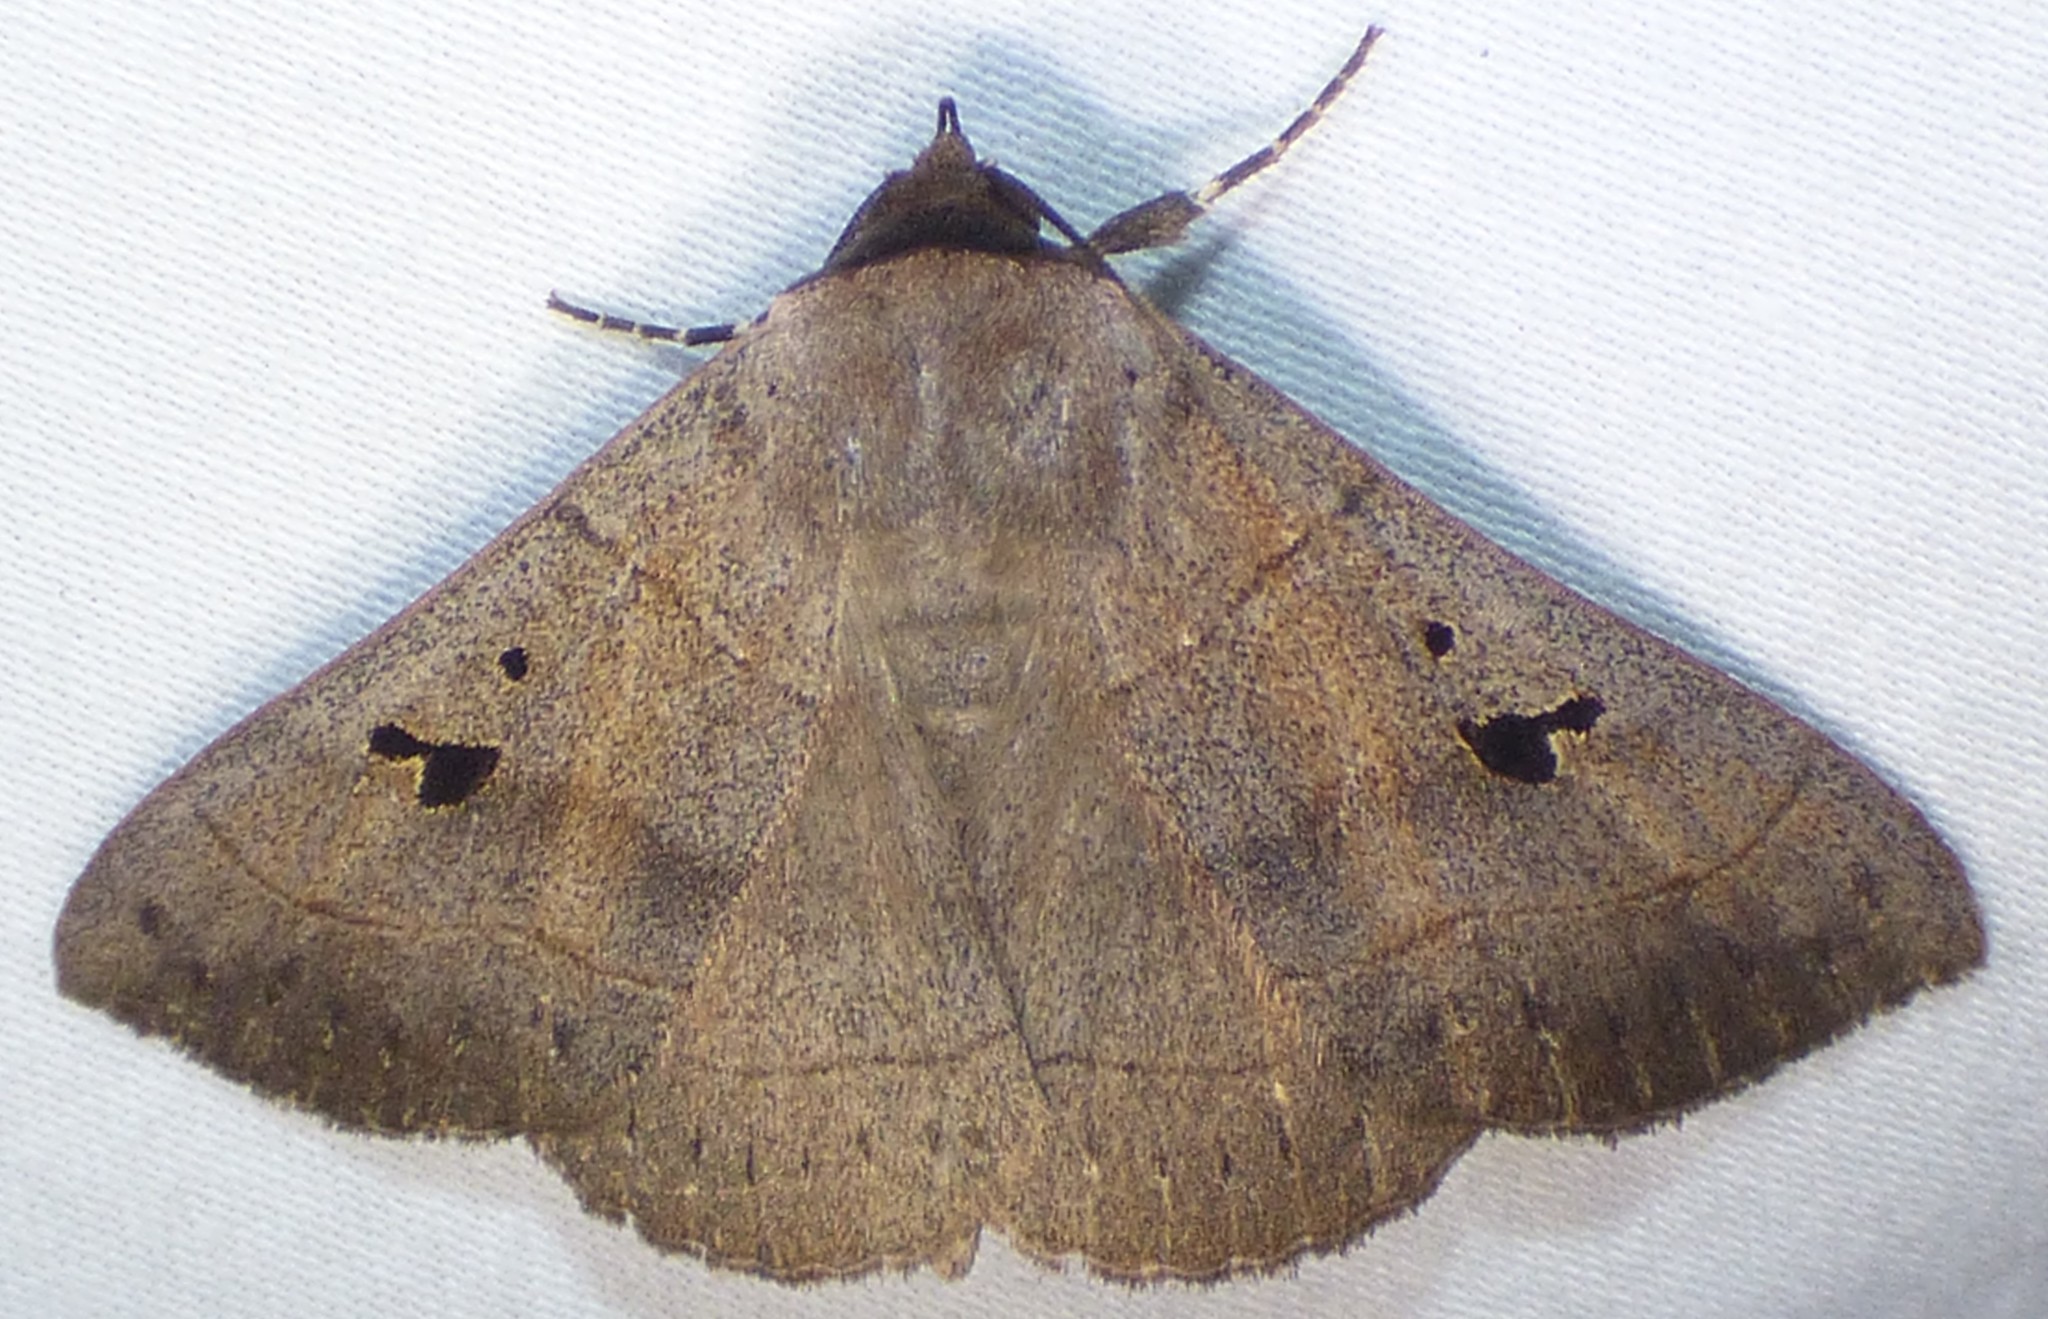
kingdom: Animalia
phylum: Arthropoda
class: Insecta
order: Lepidoptera
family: Erebidae
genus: Panopoda
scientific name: Panopoda carneicosta
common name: Brown panopoda moth
